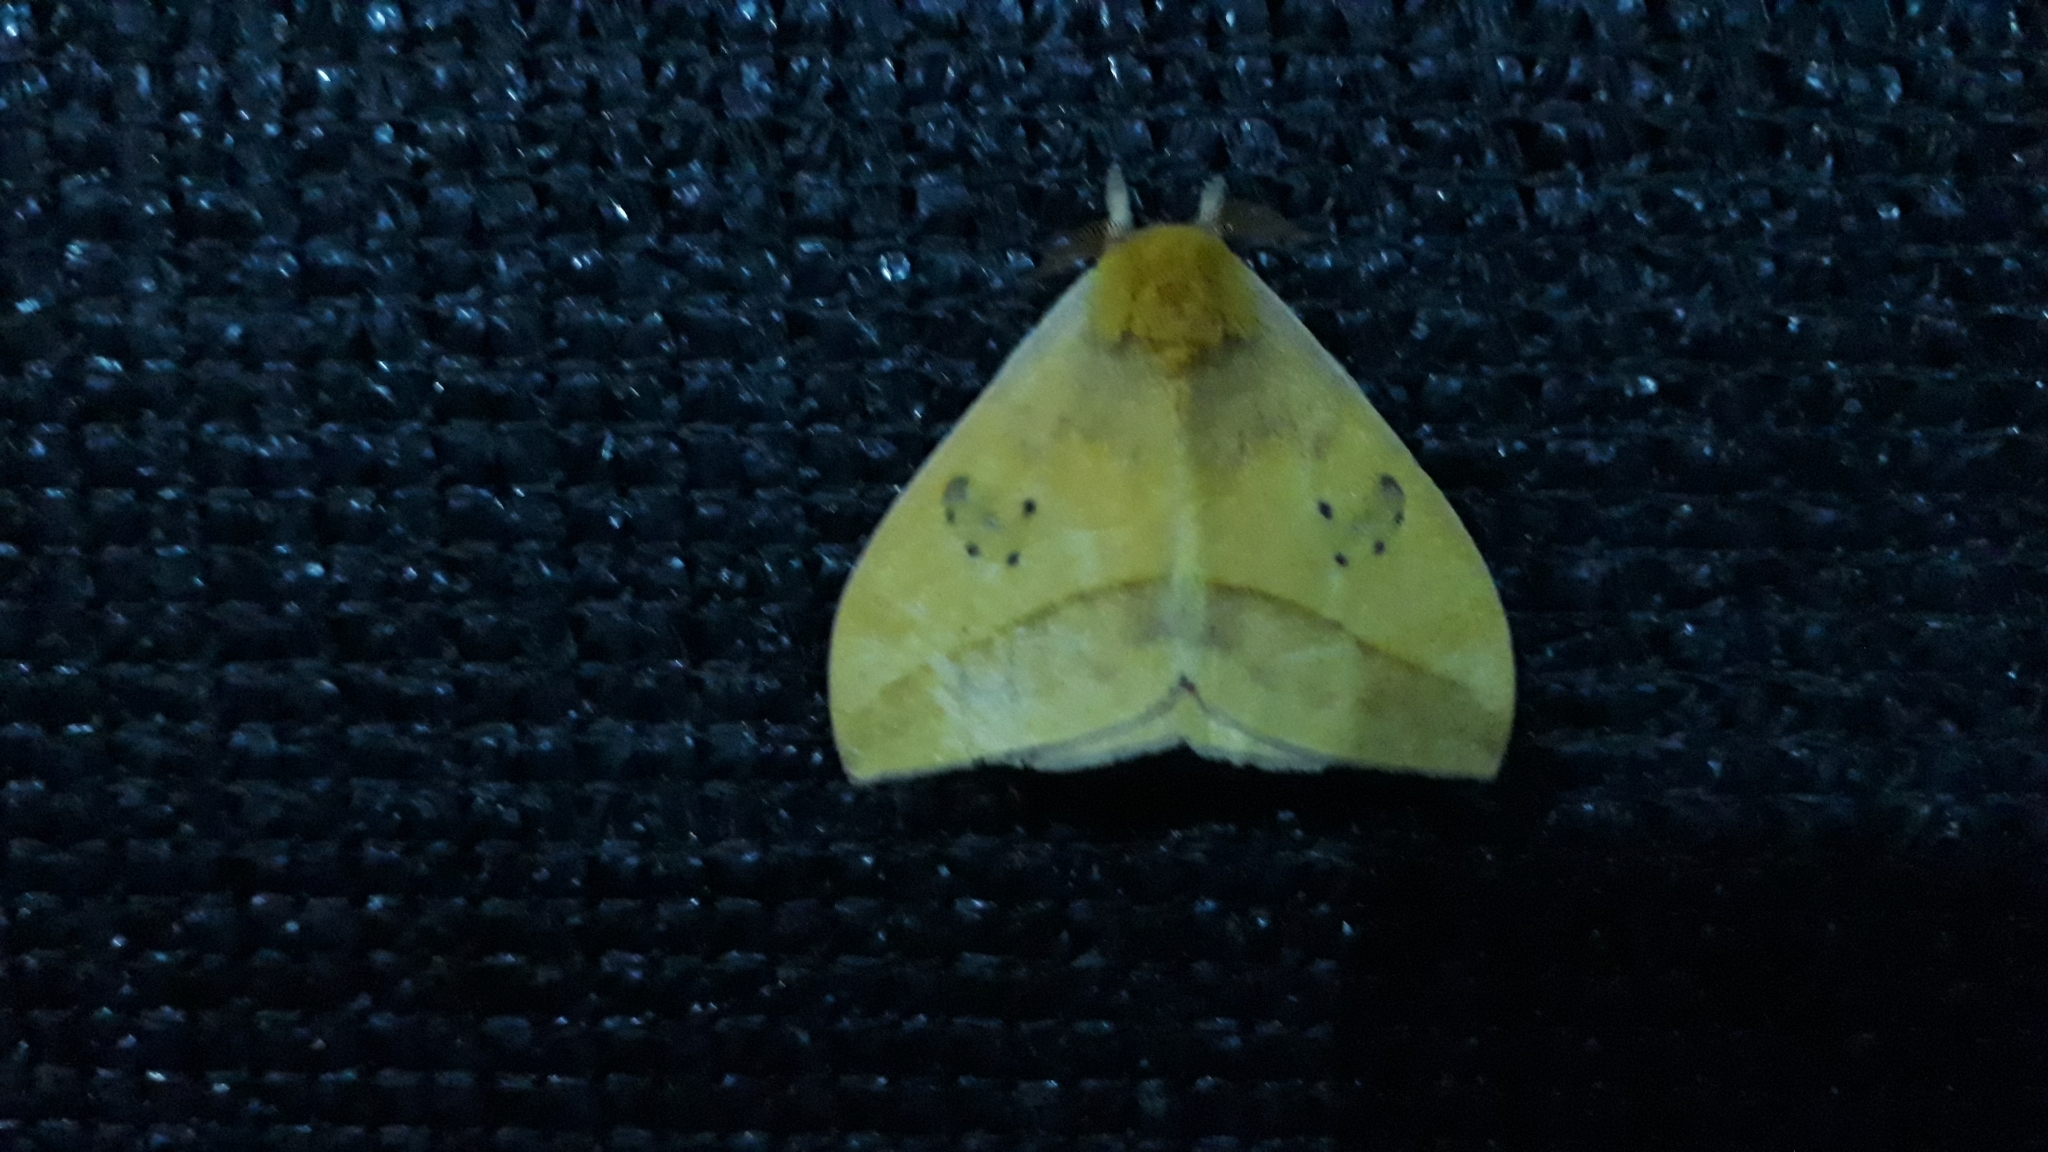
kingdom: Animalia
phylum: Arthropoda
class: Insecta
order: Lepidoptera
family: Saturniidae
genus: Automeris
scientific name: Automeris jucunda
